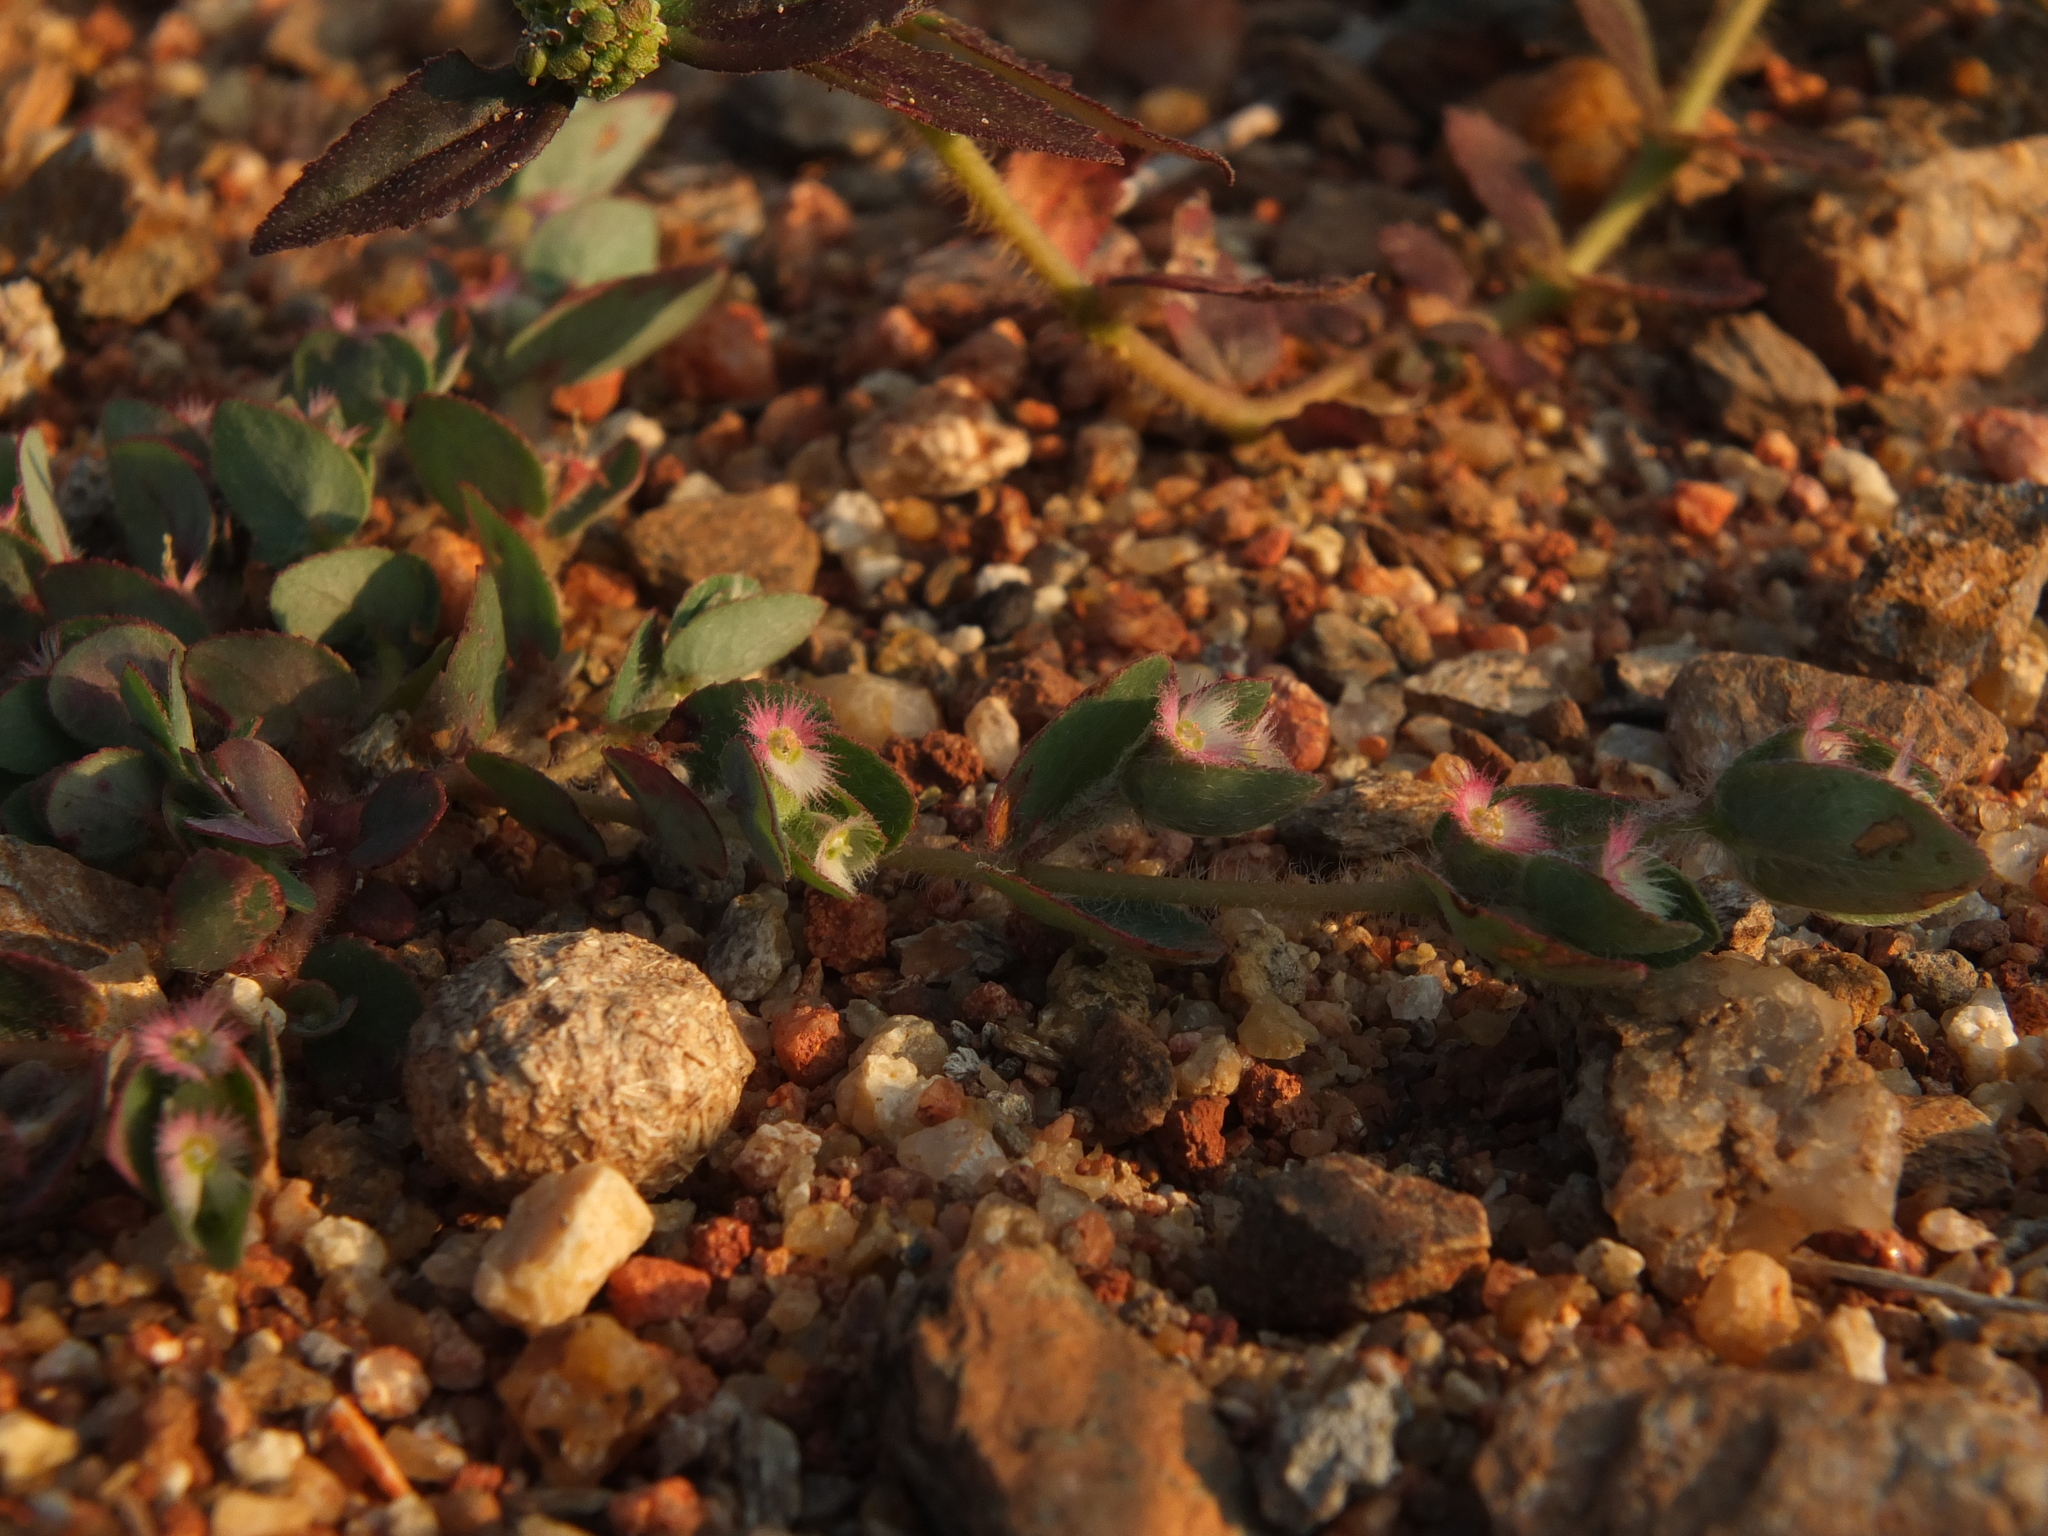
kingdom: Plantae
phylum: Tracheophyta
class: Magnoliopsida
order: Malpighiales
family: Euphorbiaceae
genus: Euphorbia
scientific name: Euphorbia cristata
